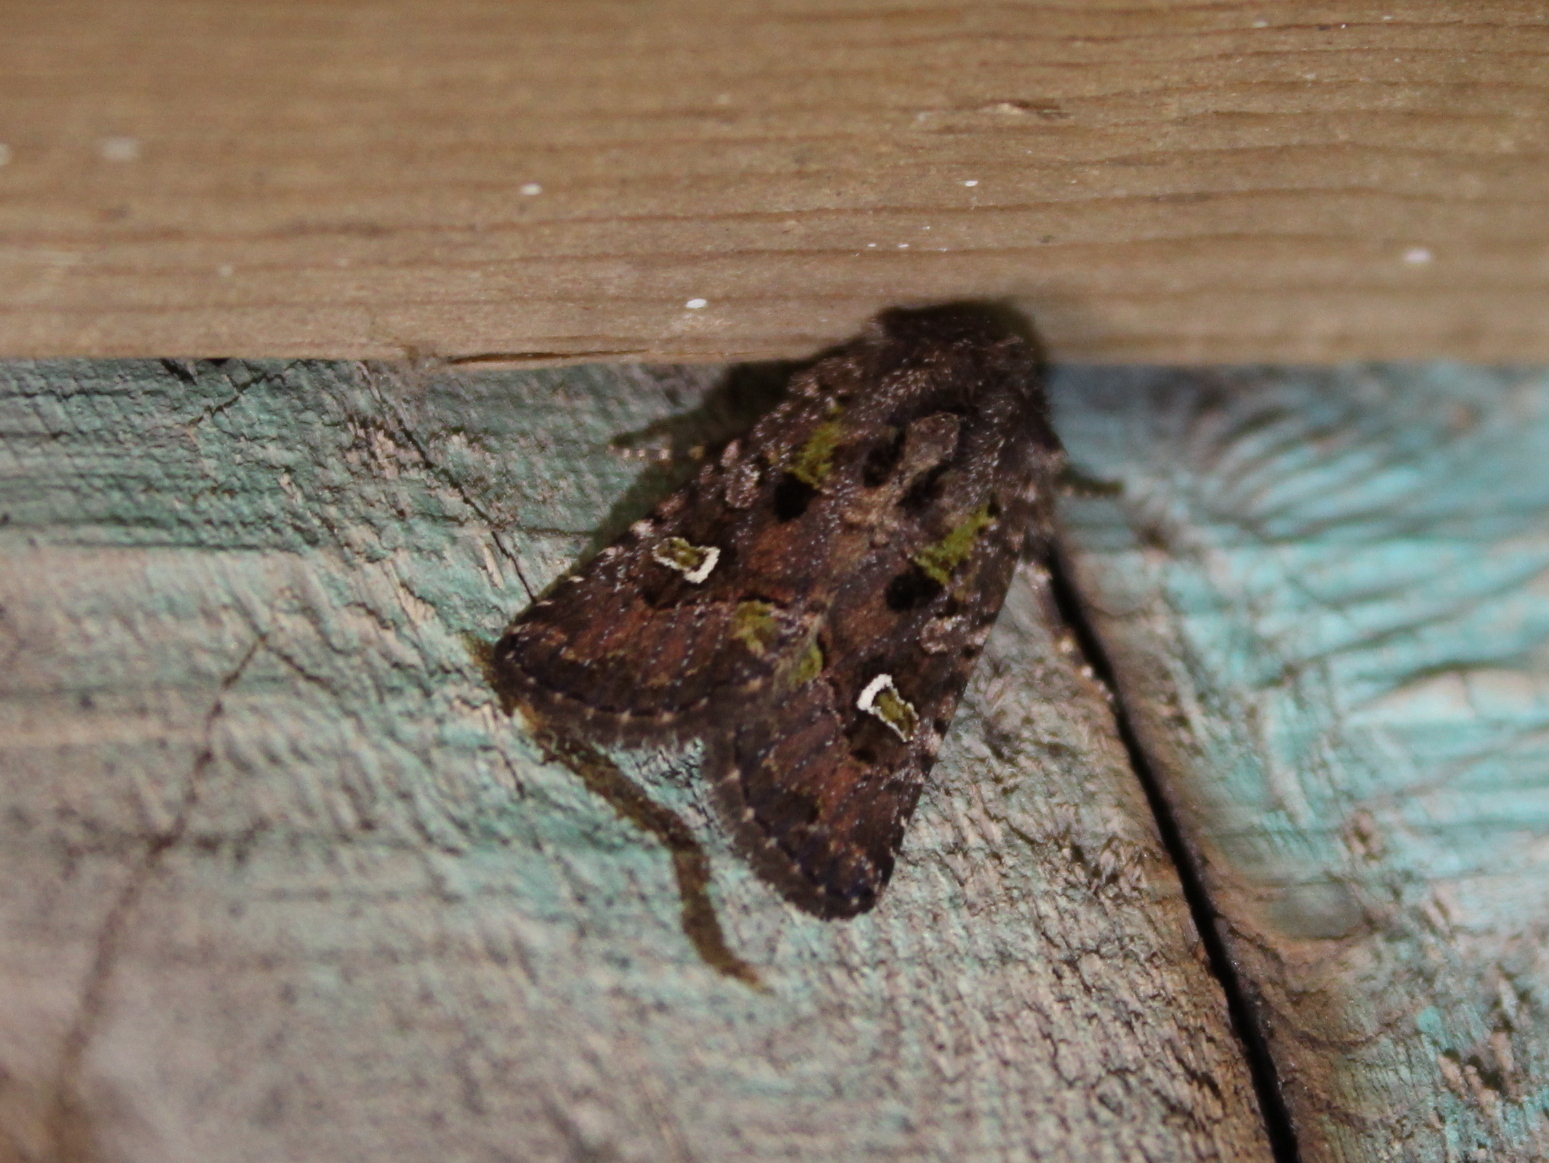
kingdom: Animalia
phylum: Arthropoda
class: Insecta
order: Lepidoptera
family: Noctuidae
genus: Lacinipolia
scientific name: Lacinipolia renigera
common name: Kidney-spotted minor
